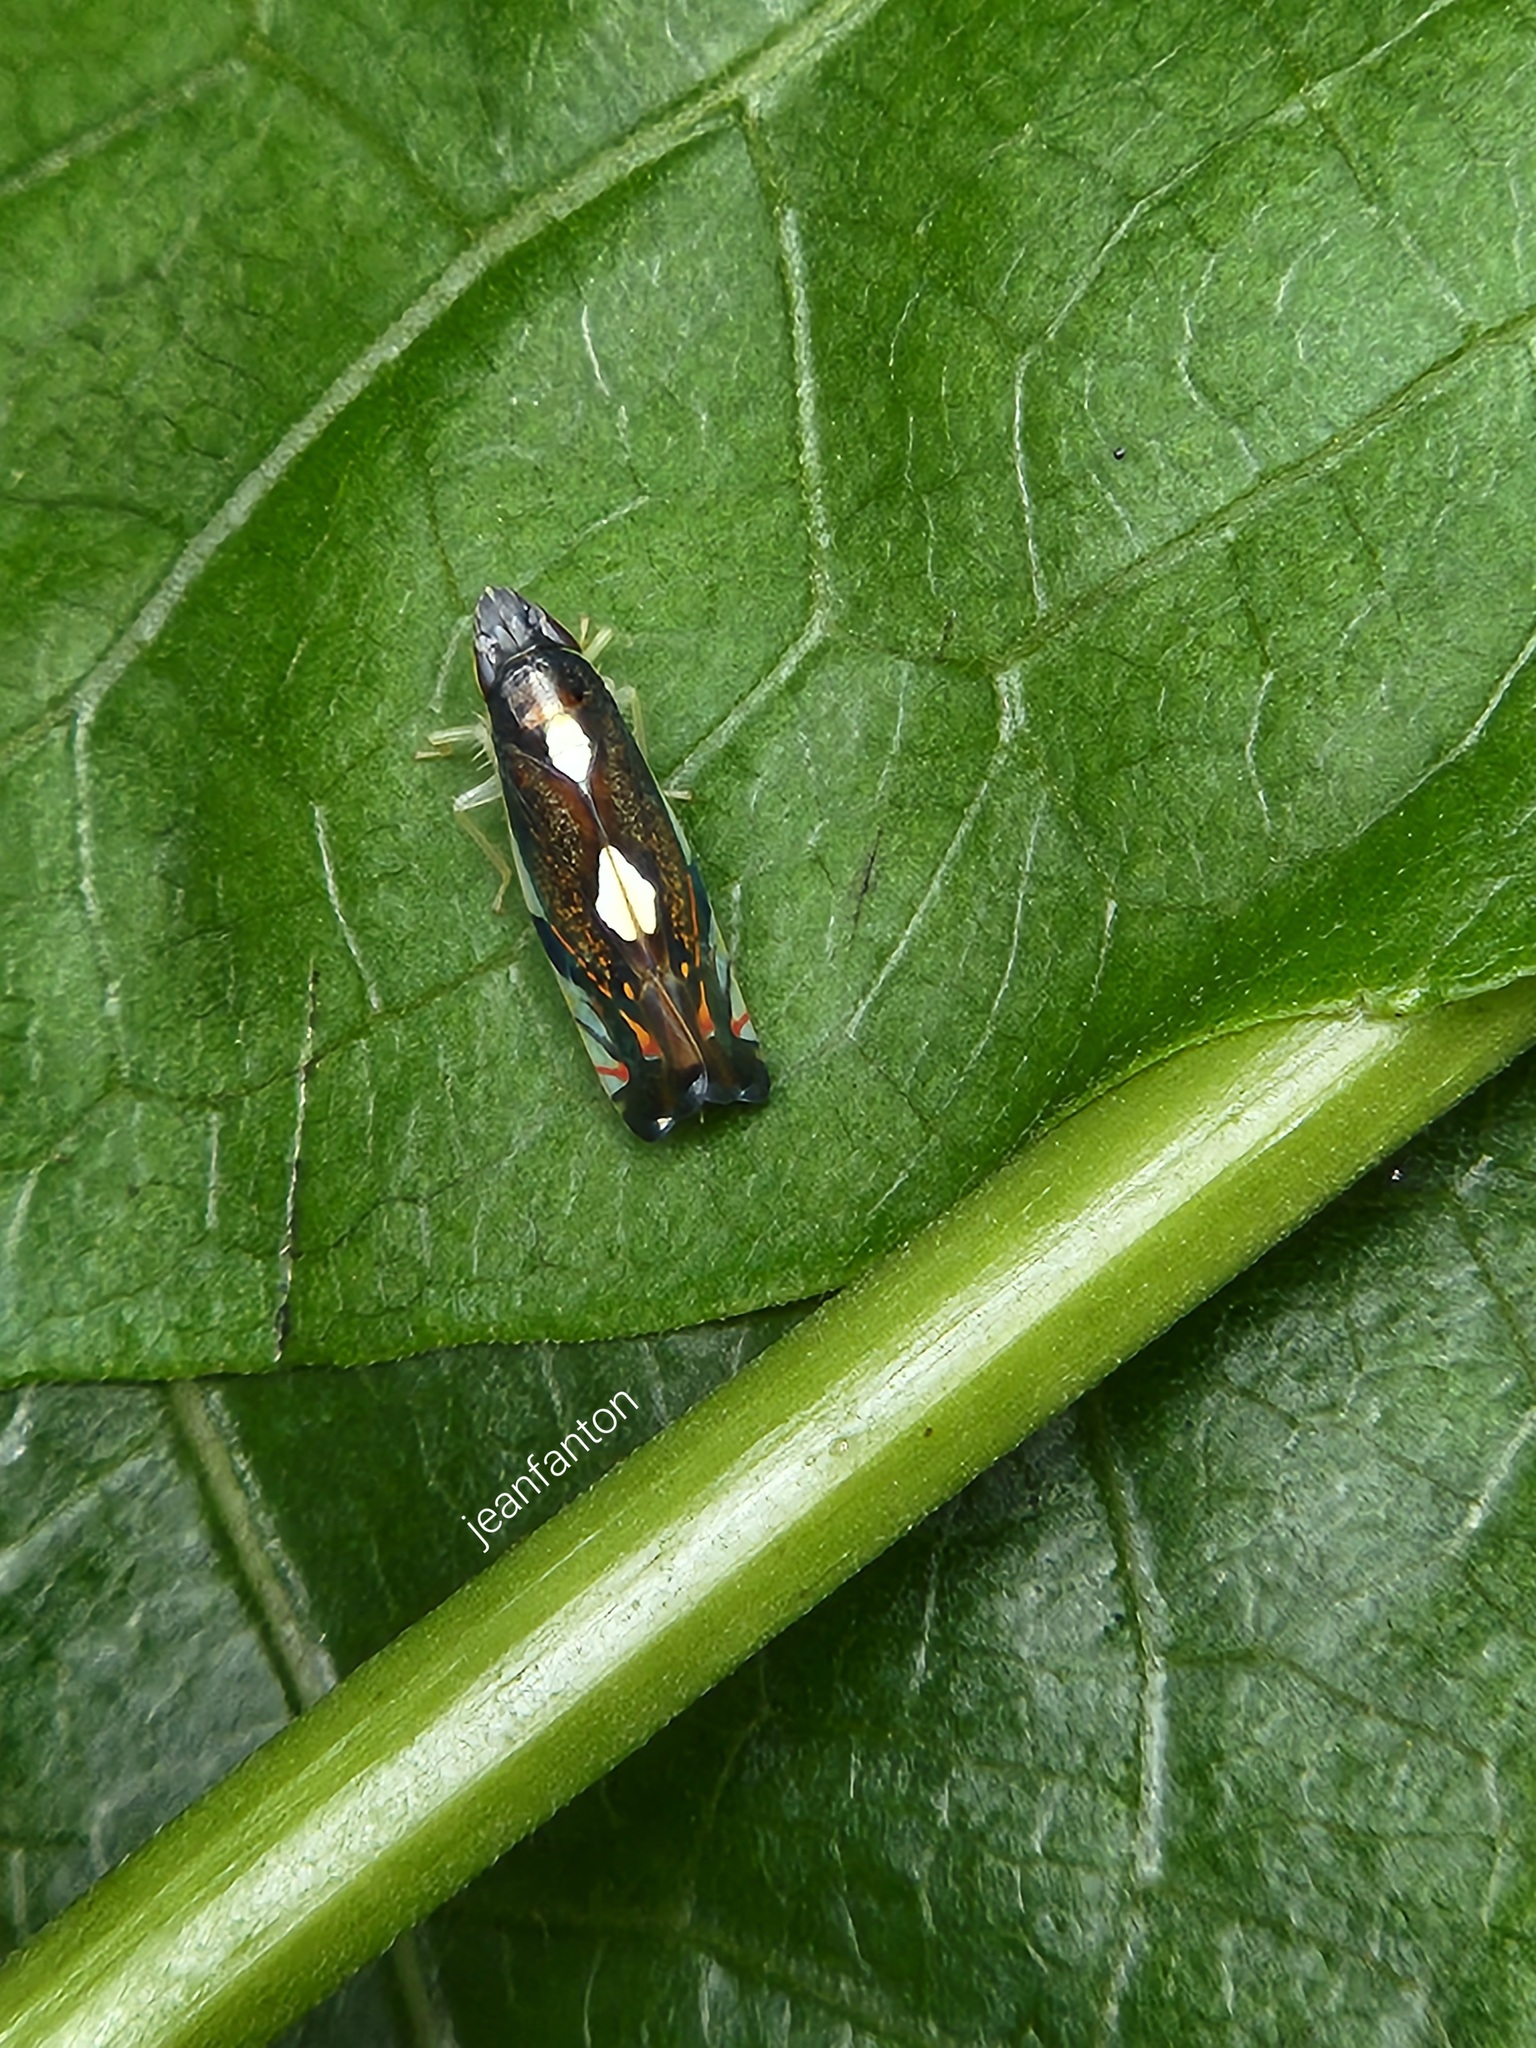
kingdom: Animalia
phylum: Arthropoda
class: Insecta
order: Hemiptera
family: Cicadellidae
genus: Diedrocephala
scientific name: Diedrocephala variegata
